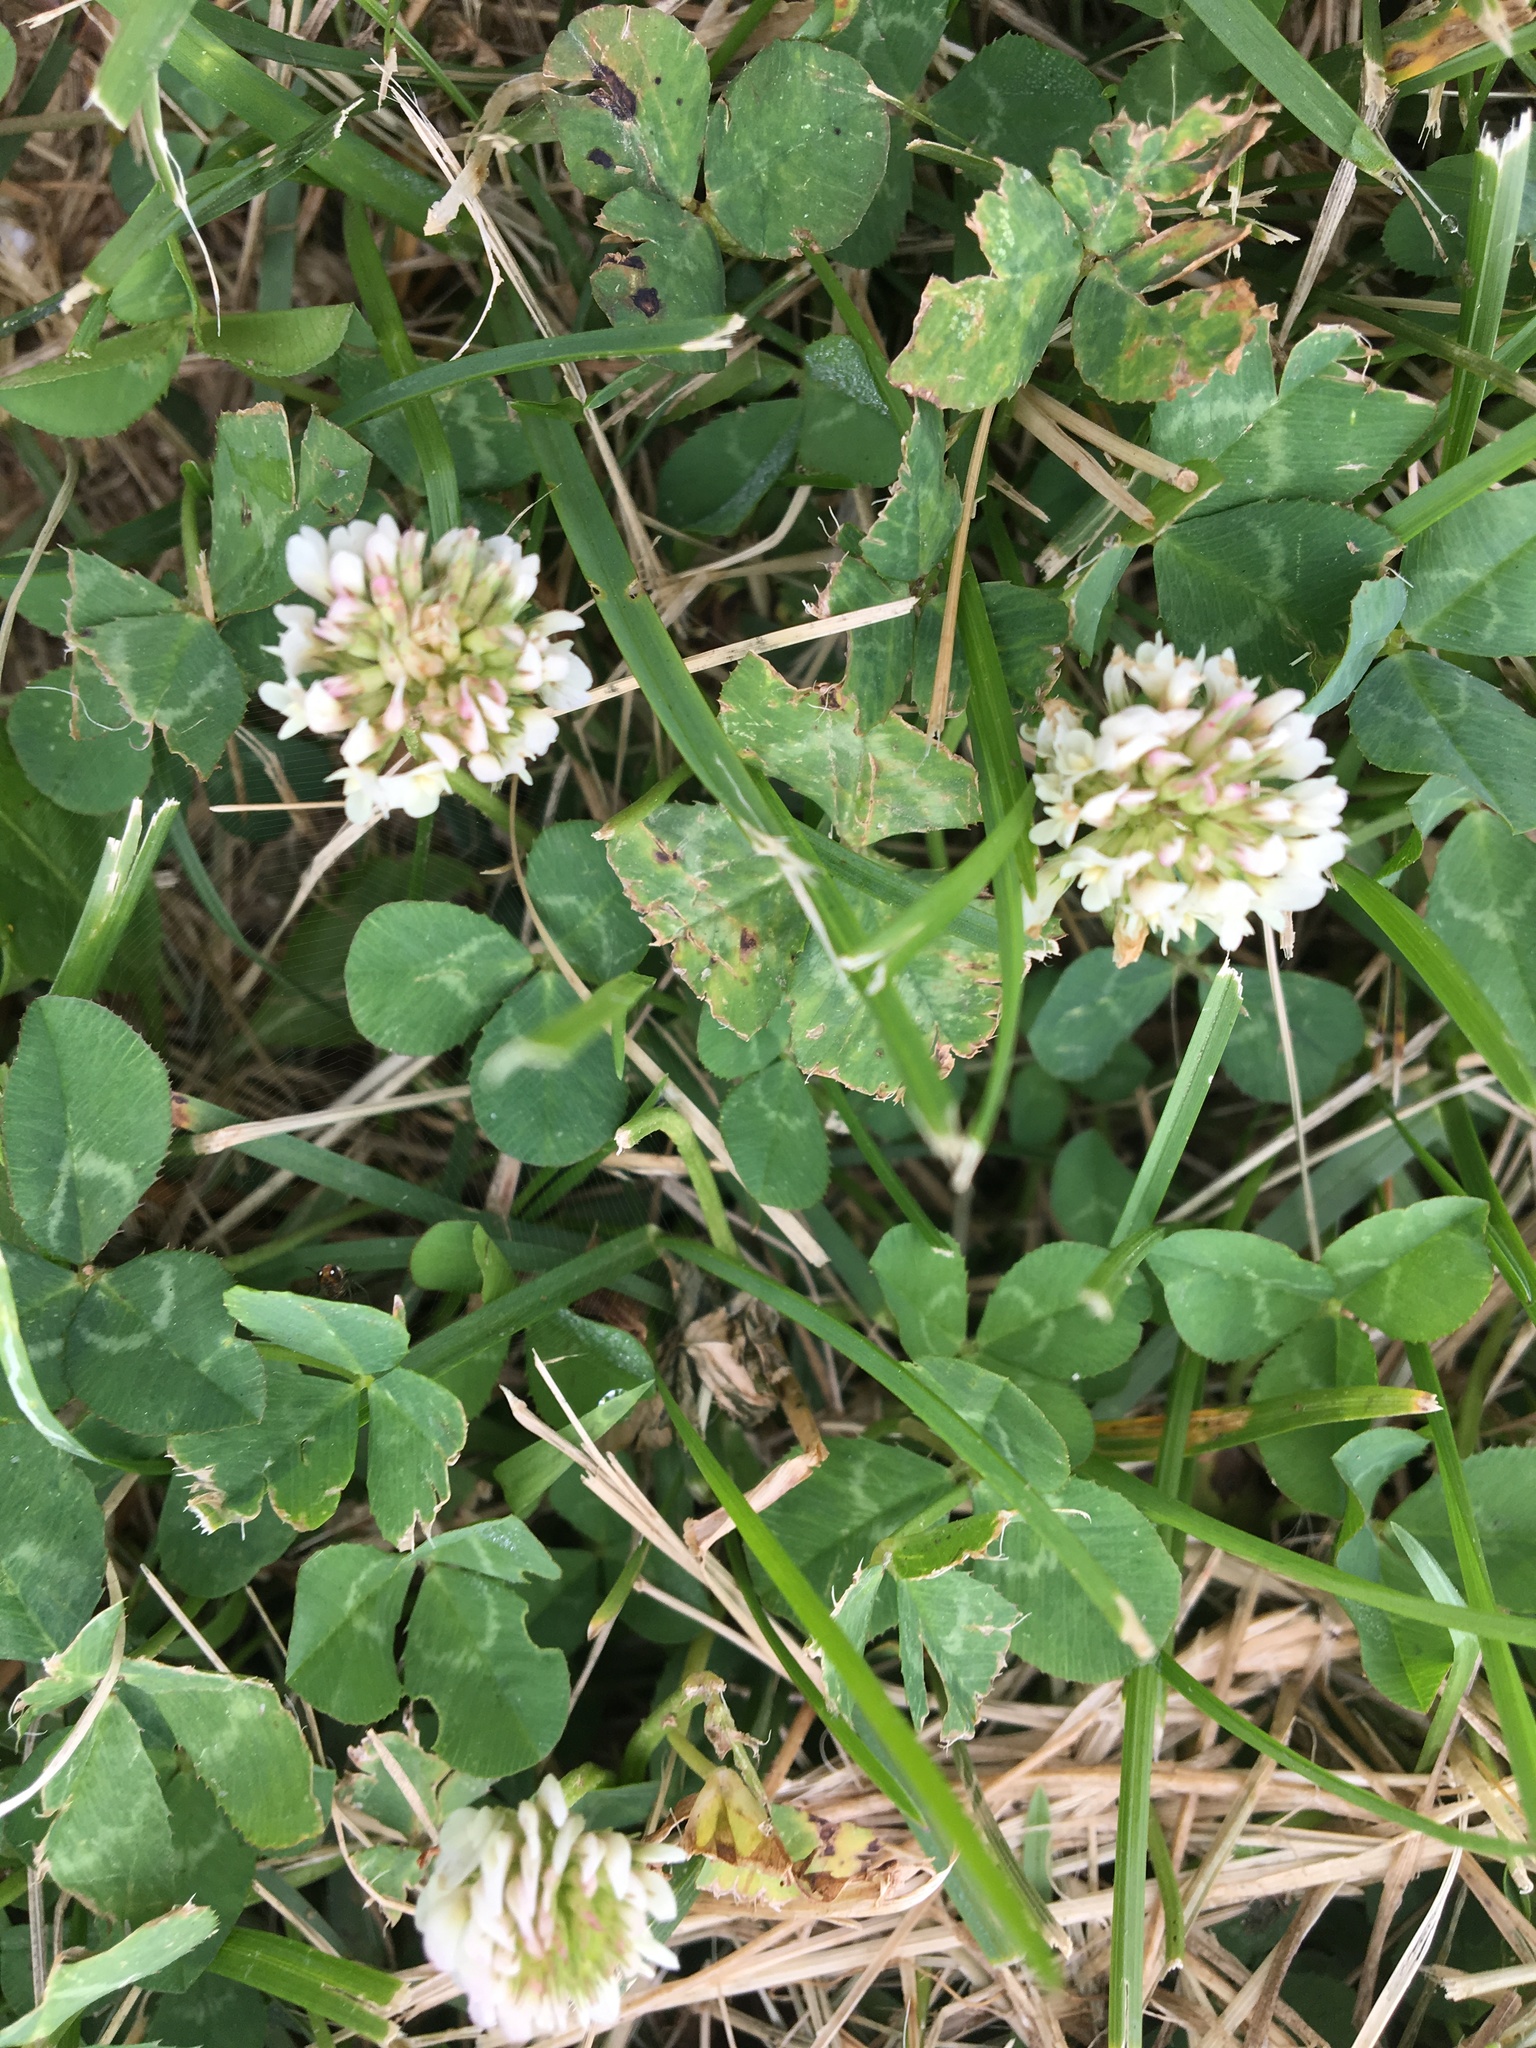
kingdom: Plantae
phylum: Tracheophyta
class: Magnoliopsida
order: Fabales
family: Fabaceae
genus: Trifolium
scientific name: Trifolium repens
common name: White clover
